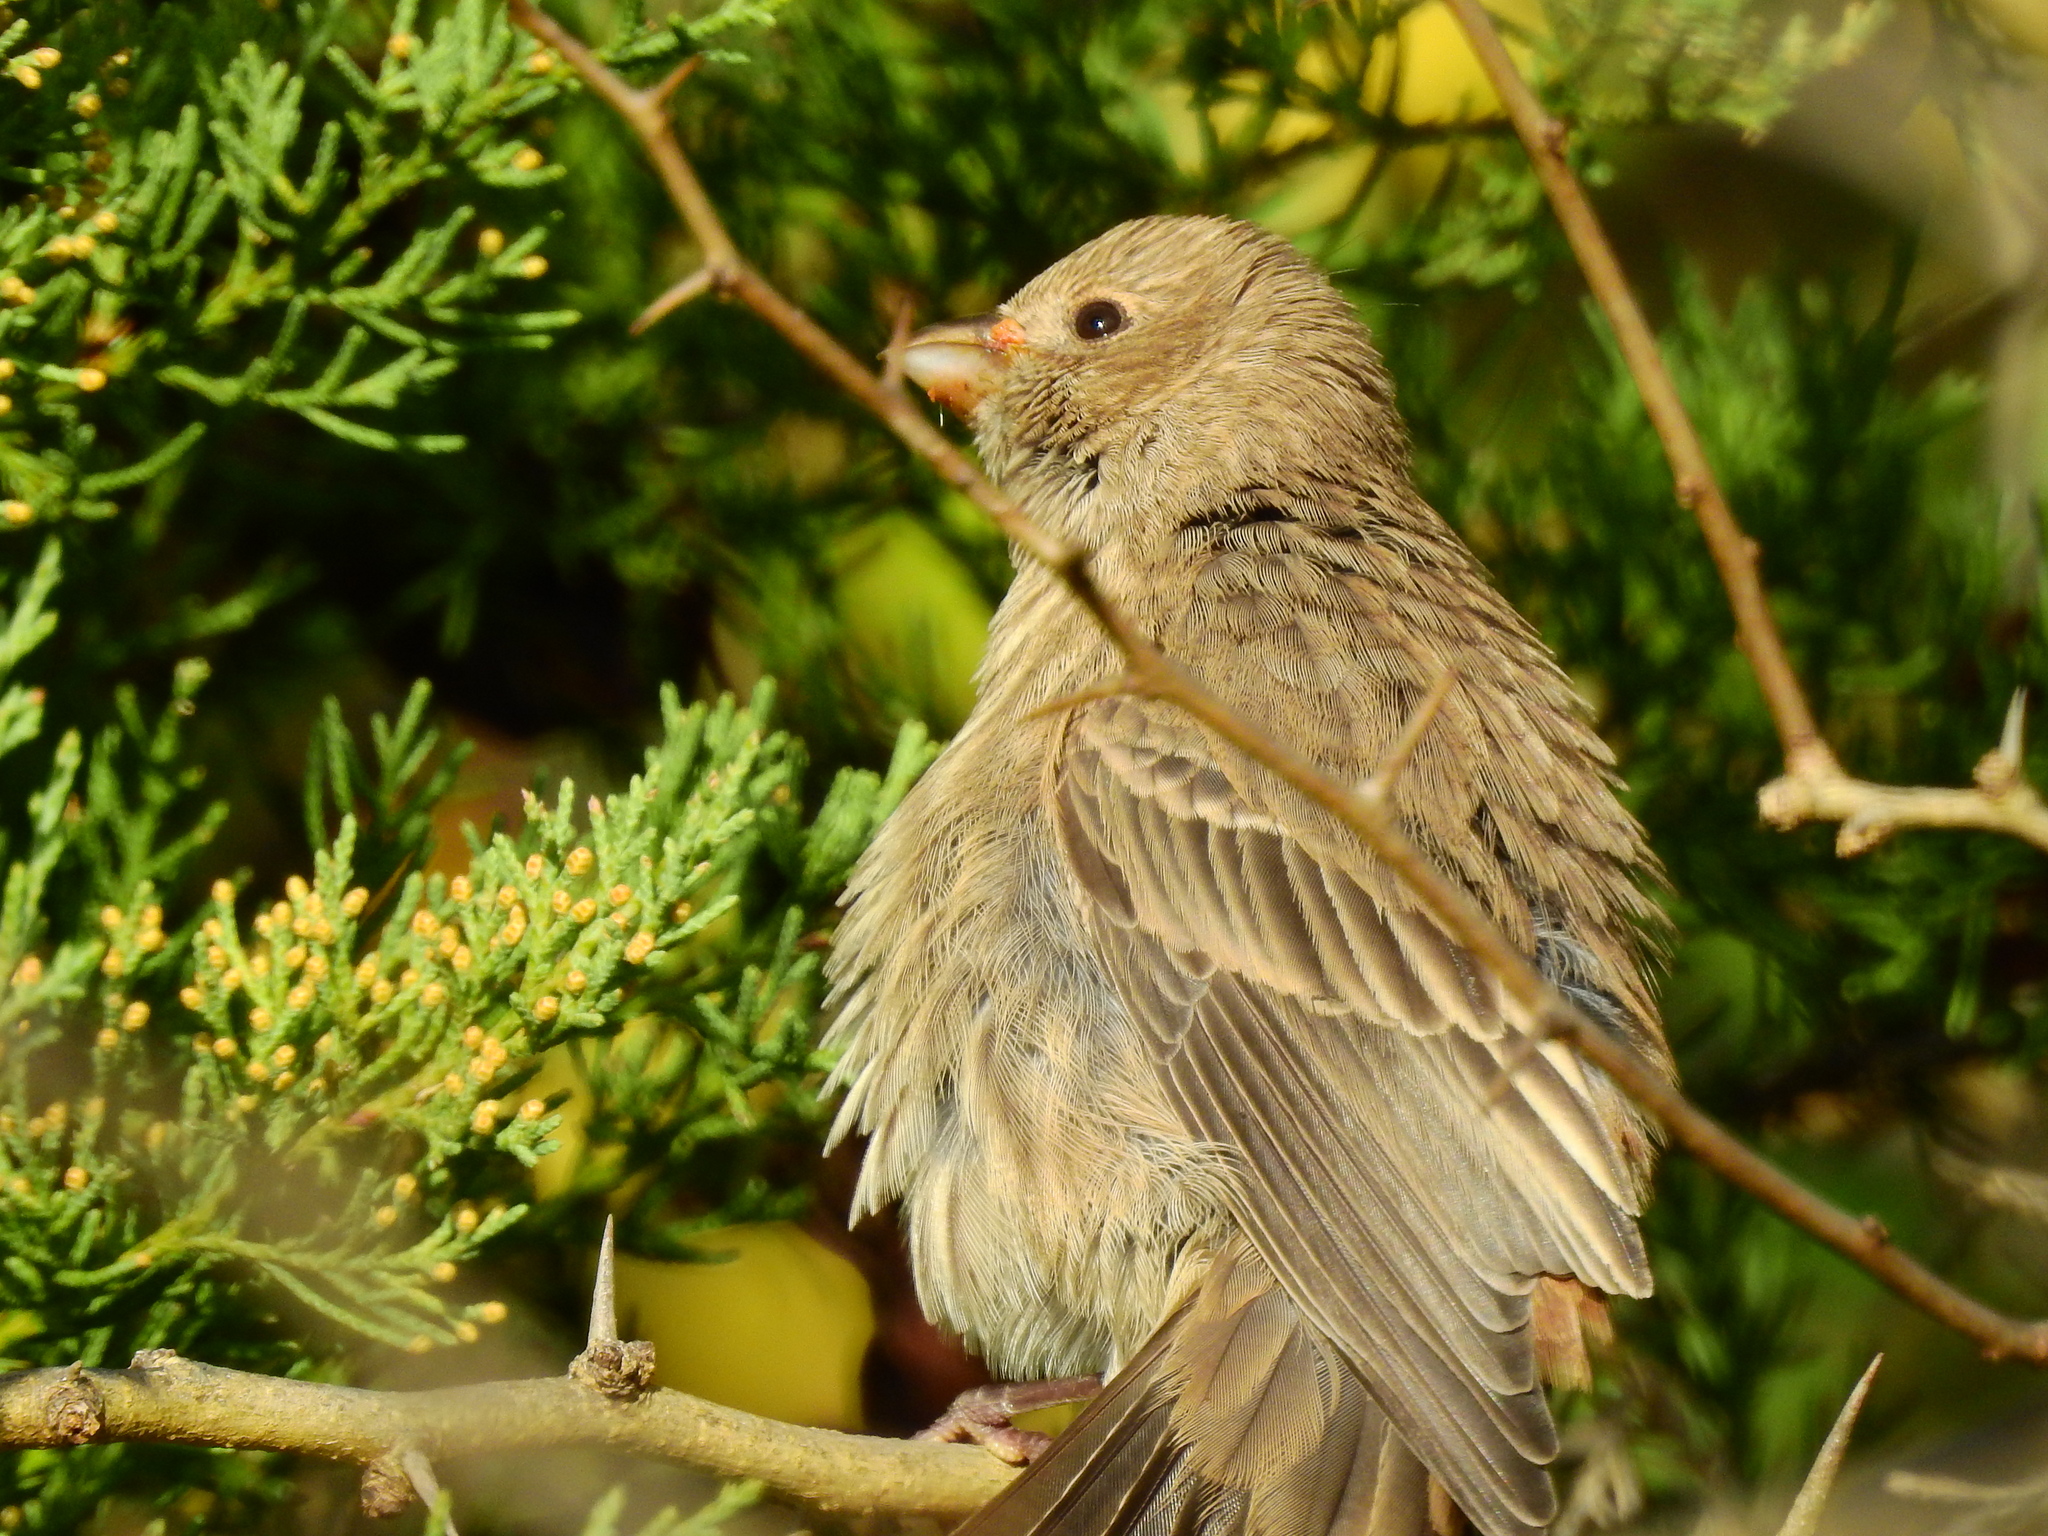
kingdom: Animalia
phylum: Chordata
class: Aves
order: Passeriformes
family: Fringillidae
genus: Haemorhous
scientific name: Haemorhous mexicanus
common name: House finch
